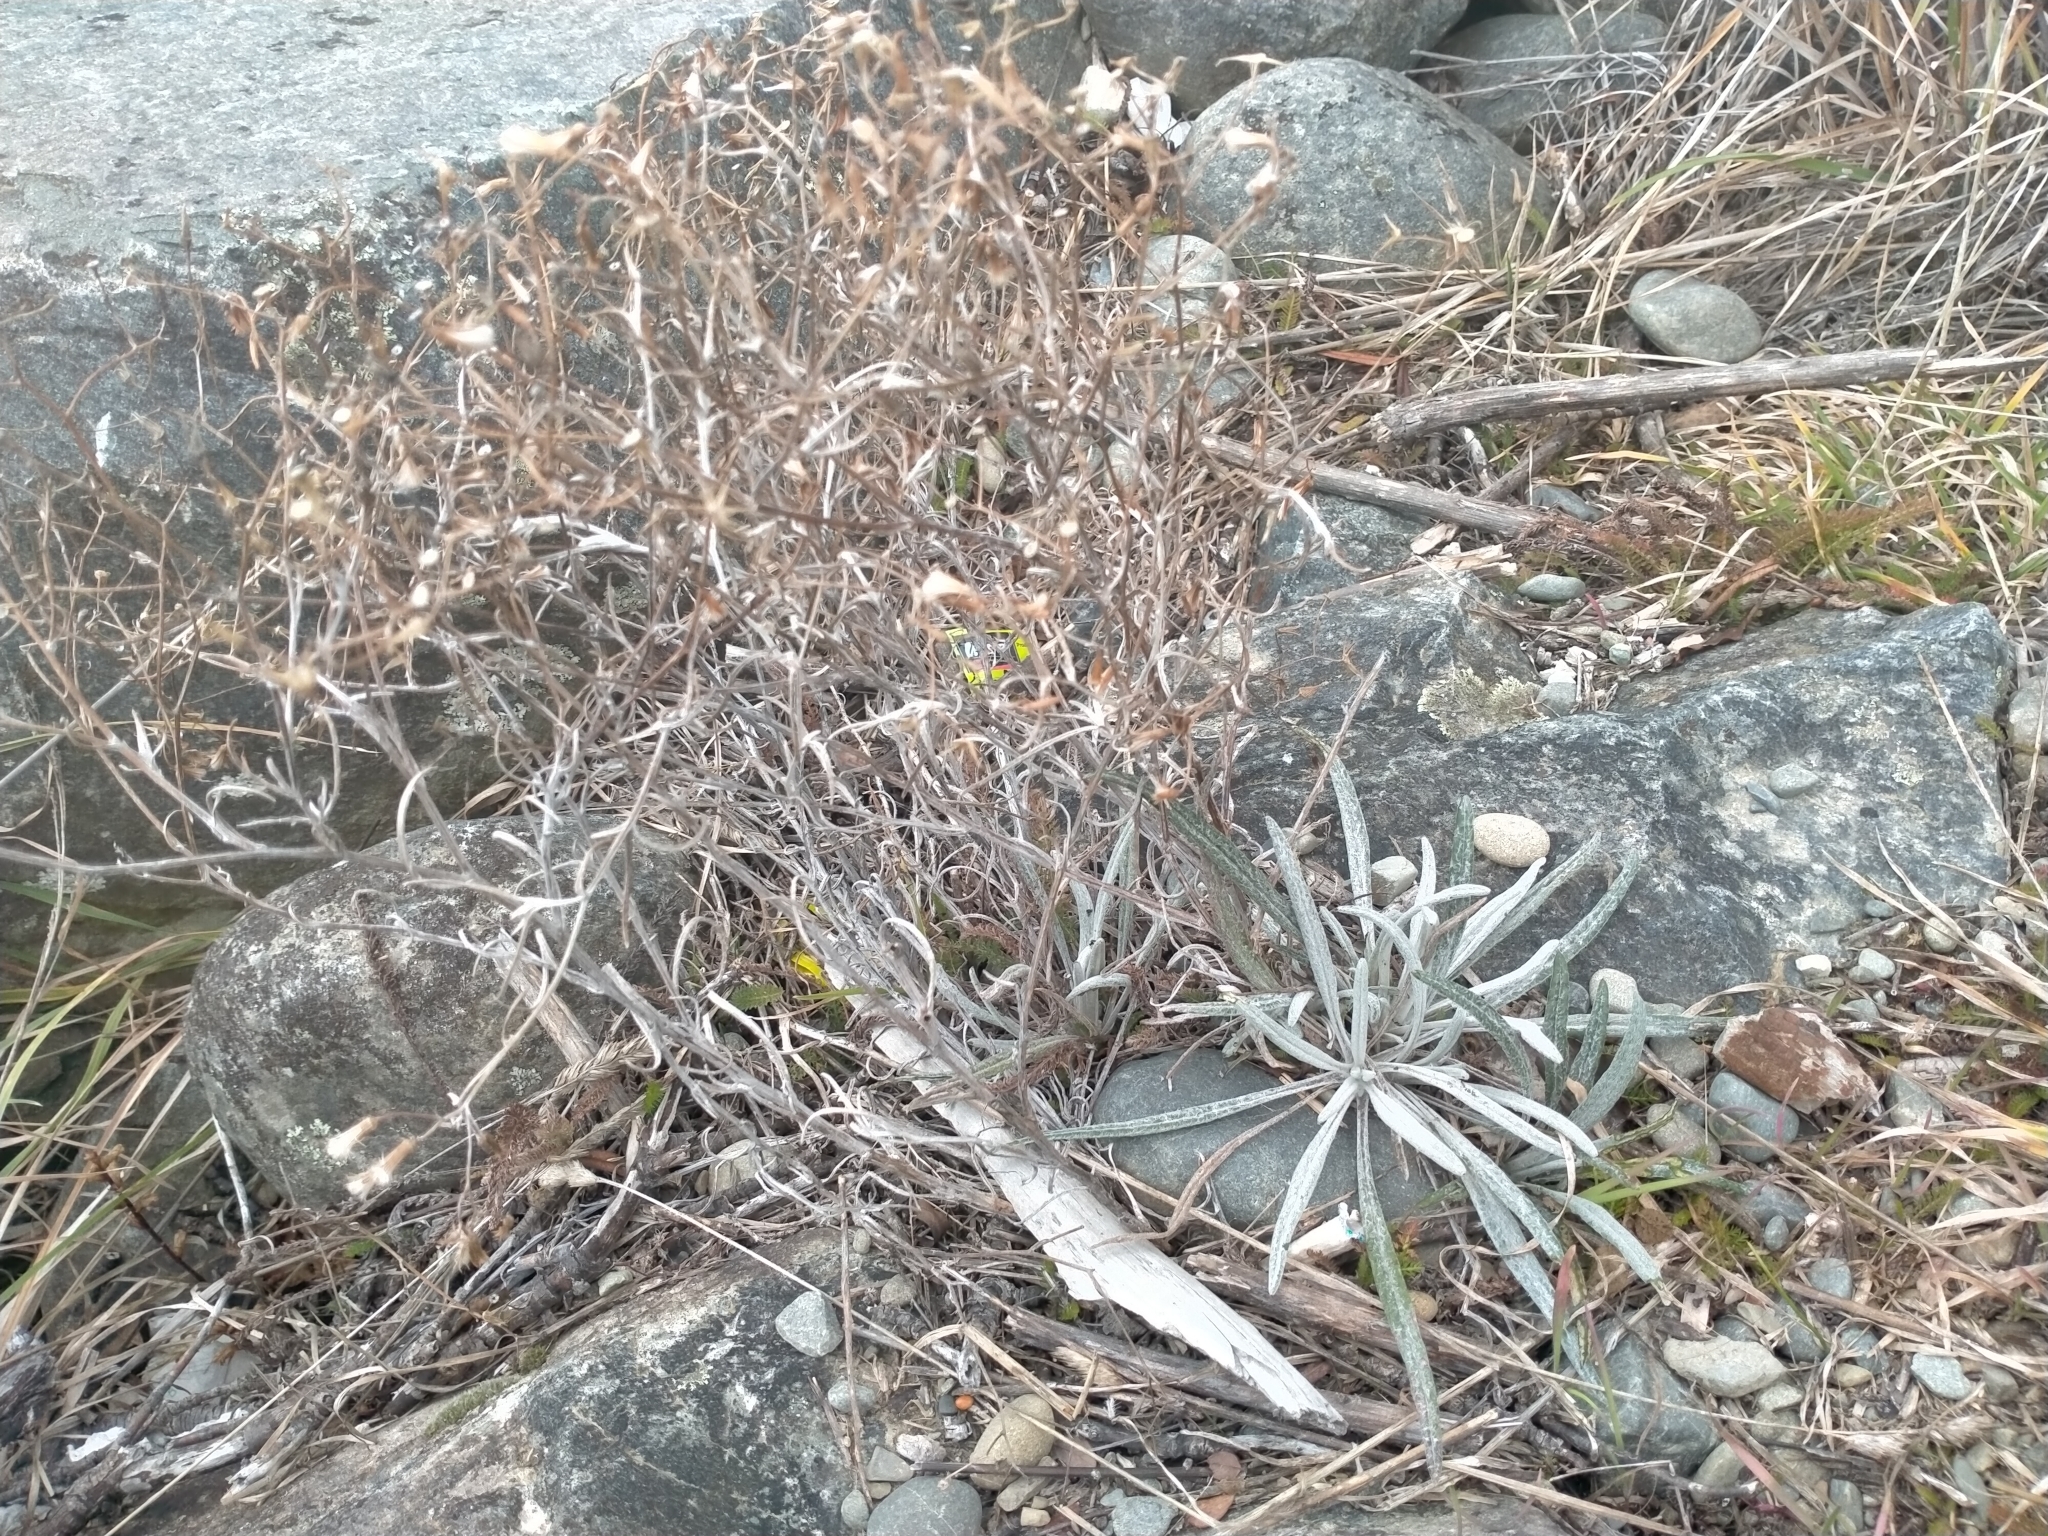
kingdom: Plantae
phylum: Tracheophyta
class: Magnoliopsida
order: Asterales
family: Asteraceae
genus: Senecio
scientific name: Senecio quadridentatus
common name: Cotton fireweed
